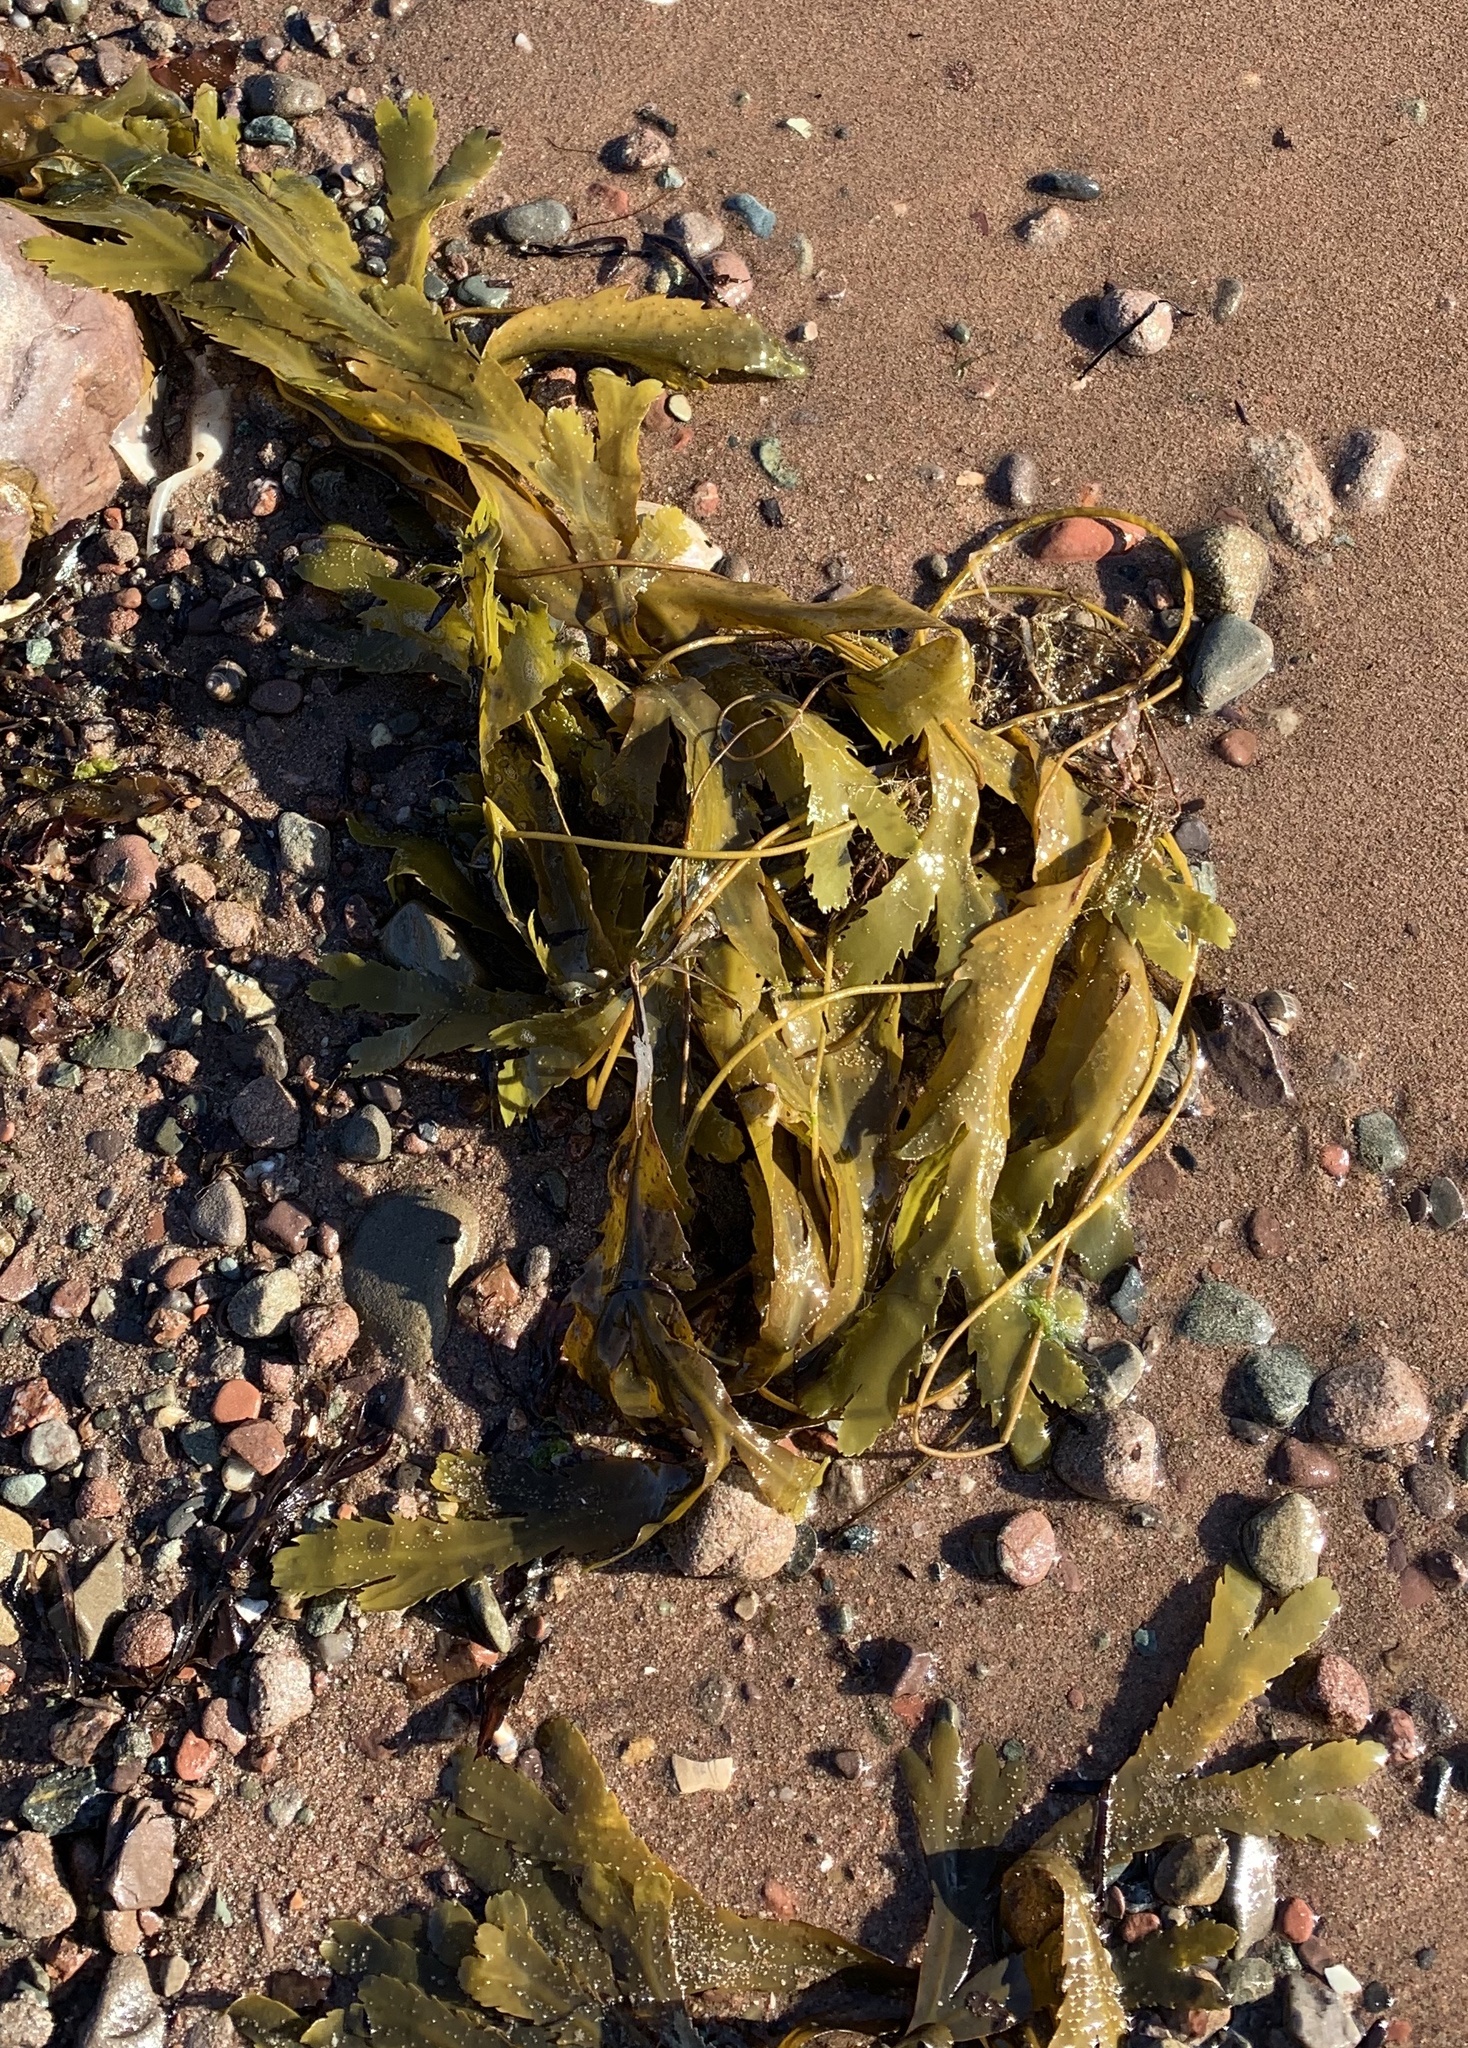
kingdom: Chromista
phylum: Ochrophyta
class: Phaeophyceae
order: Fucales
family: Fucaceae
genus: Fucus
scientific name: Fucus serratus
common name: Toothed wrack
